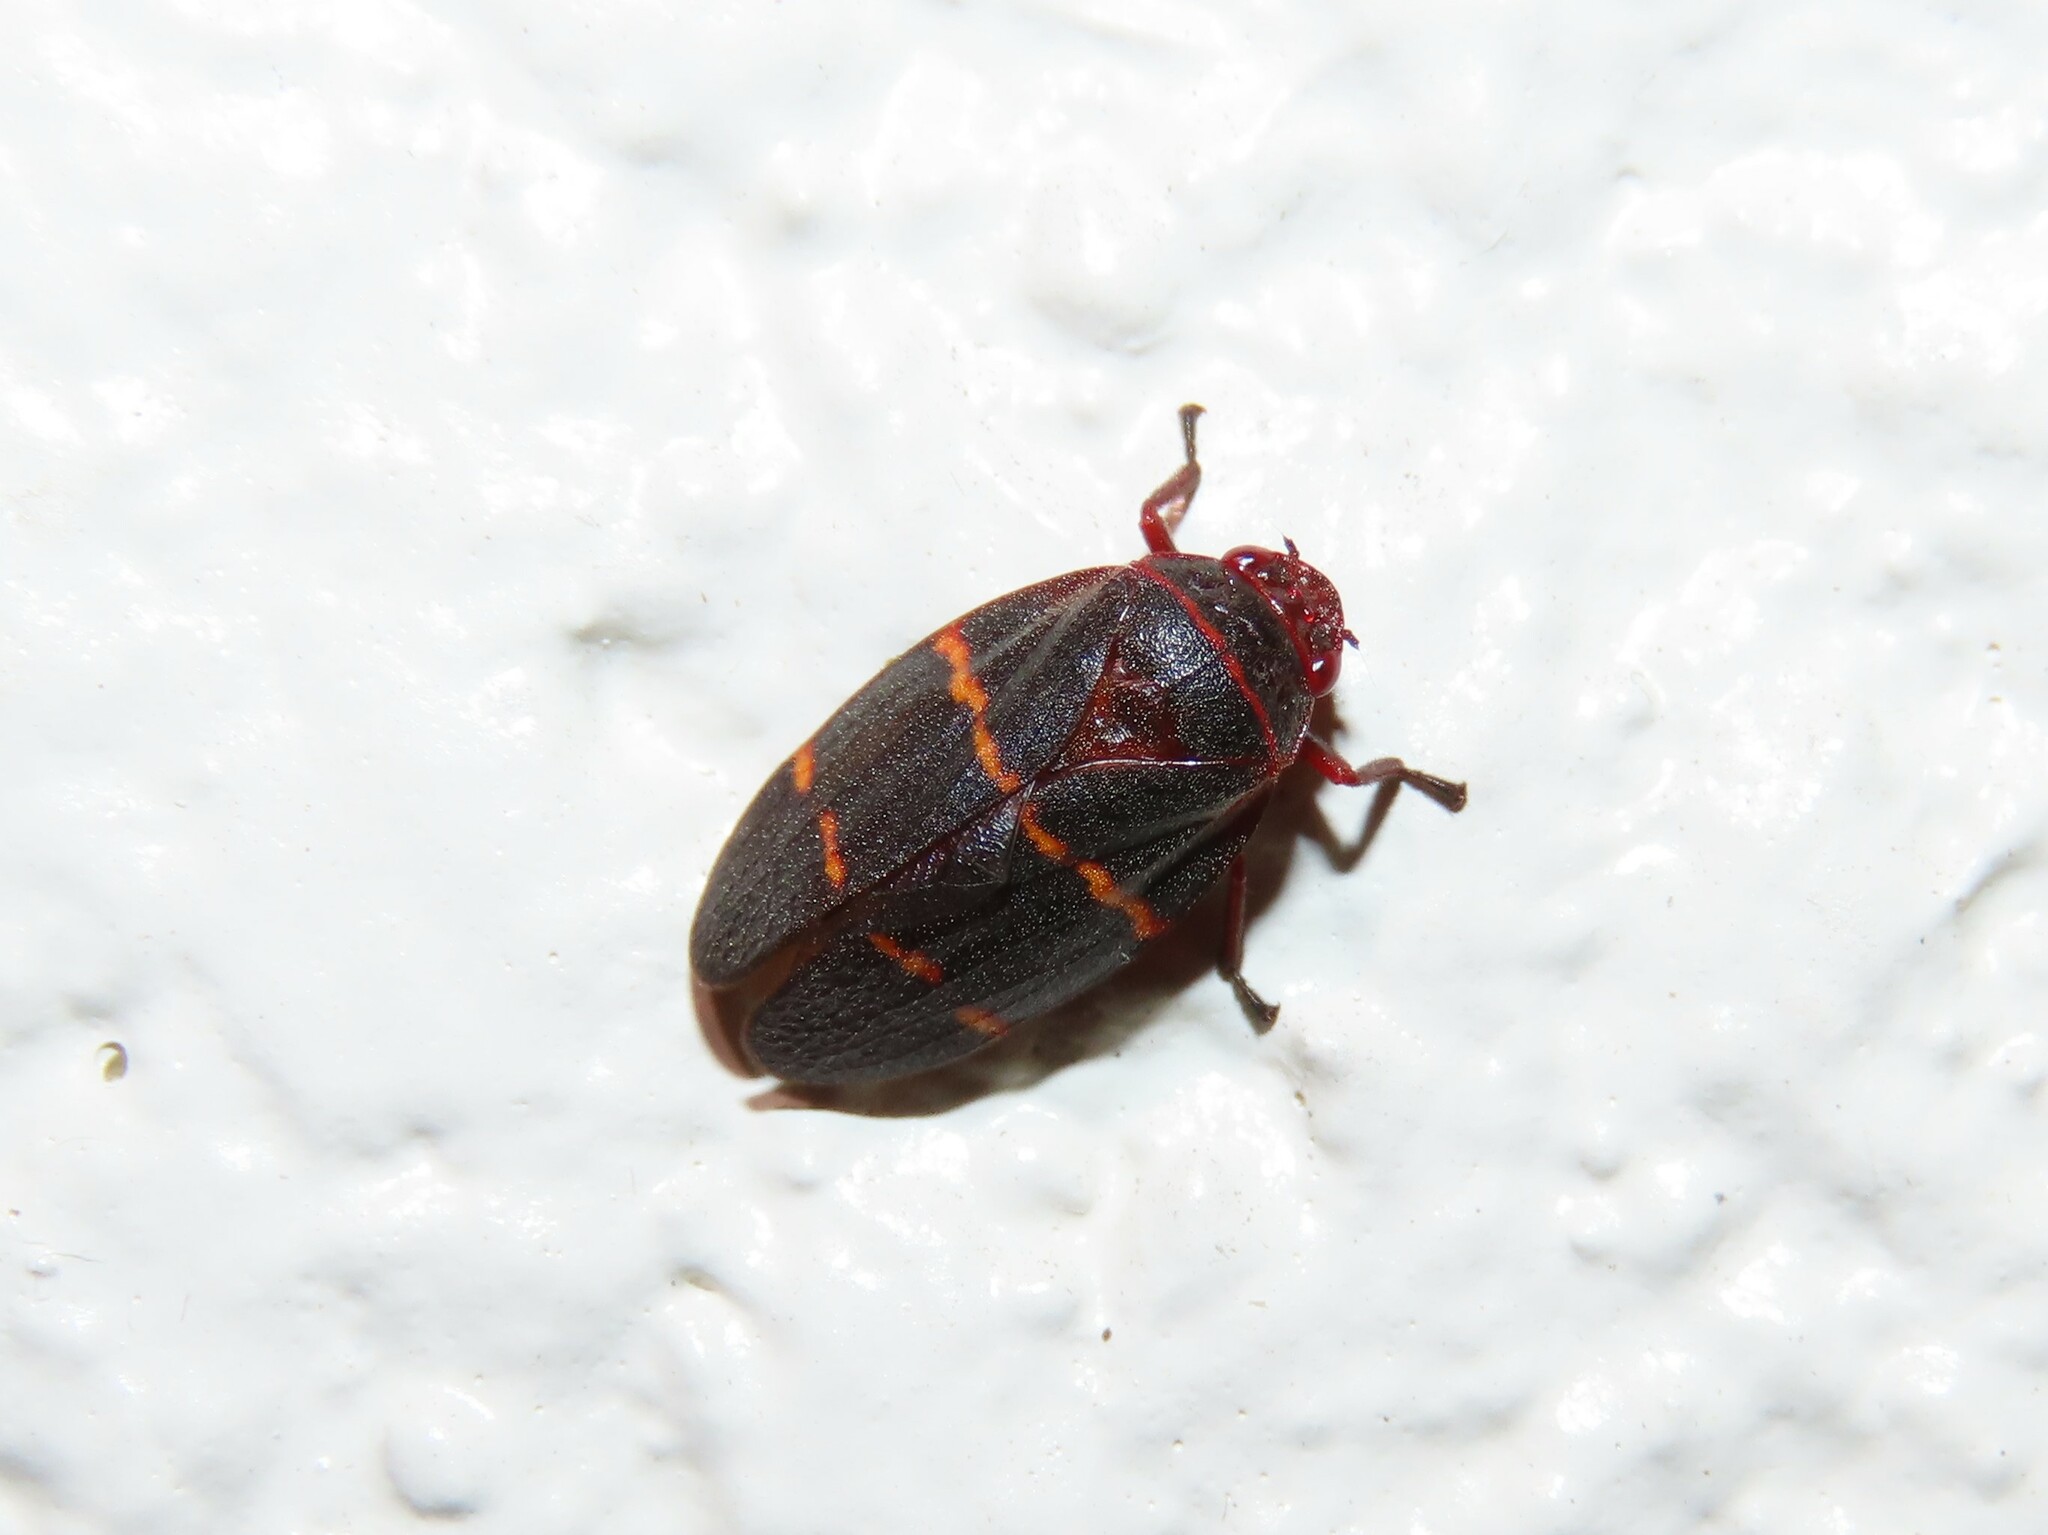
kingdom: Animalia
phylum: Arthropoda
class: Insecta
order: Hemiptera
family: Cercopidae
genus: Prosapia
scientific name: Prosapia bicincta
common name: Twolined spittlebug
